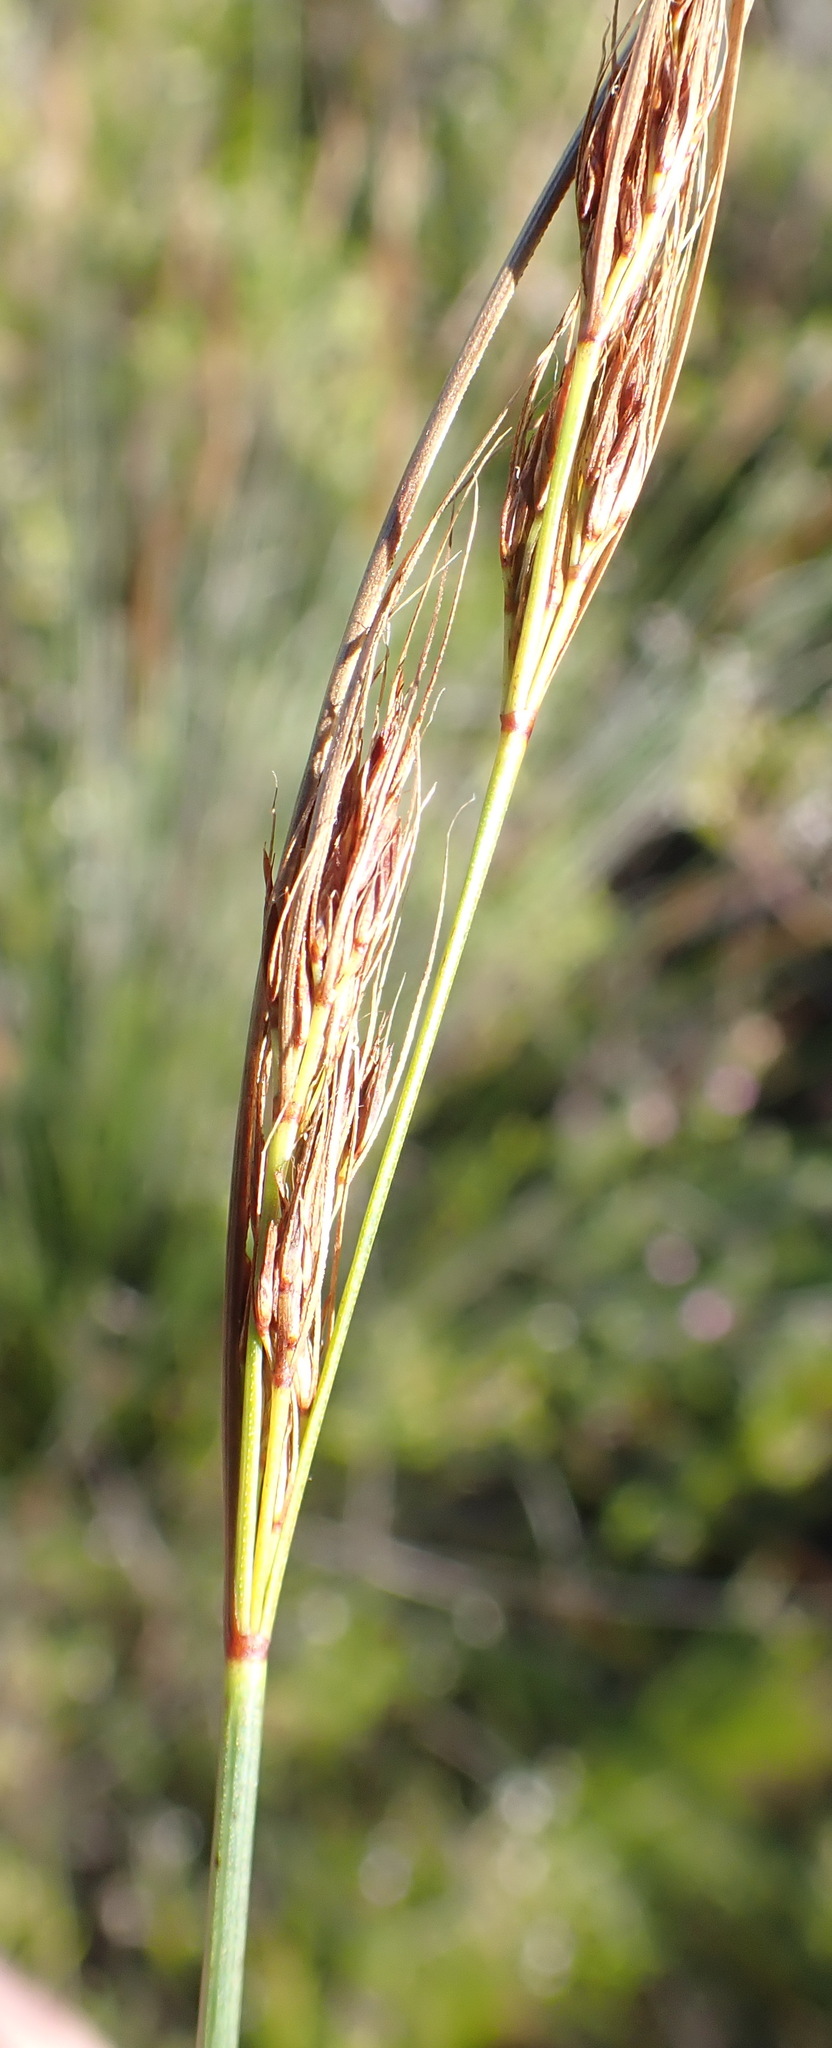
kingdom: Plantae
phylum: Tracheophyta
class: Liliopsida
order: Poales
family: Cyperaceae
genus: Schoenus
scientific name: Schoenus graciliculmis
